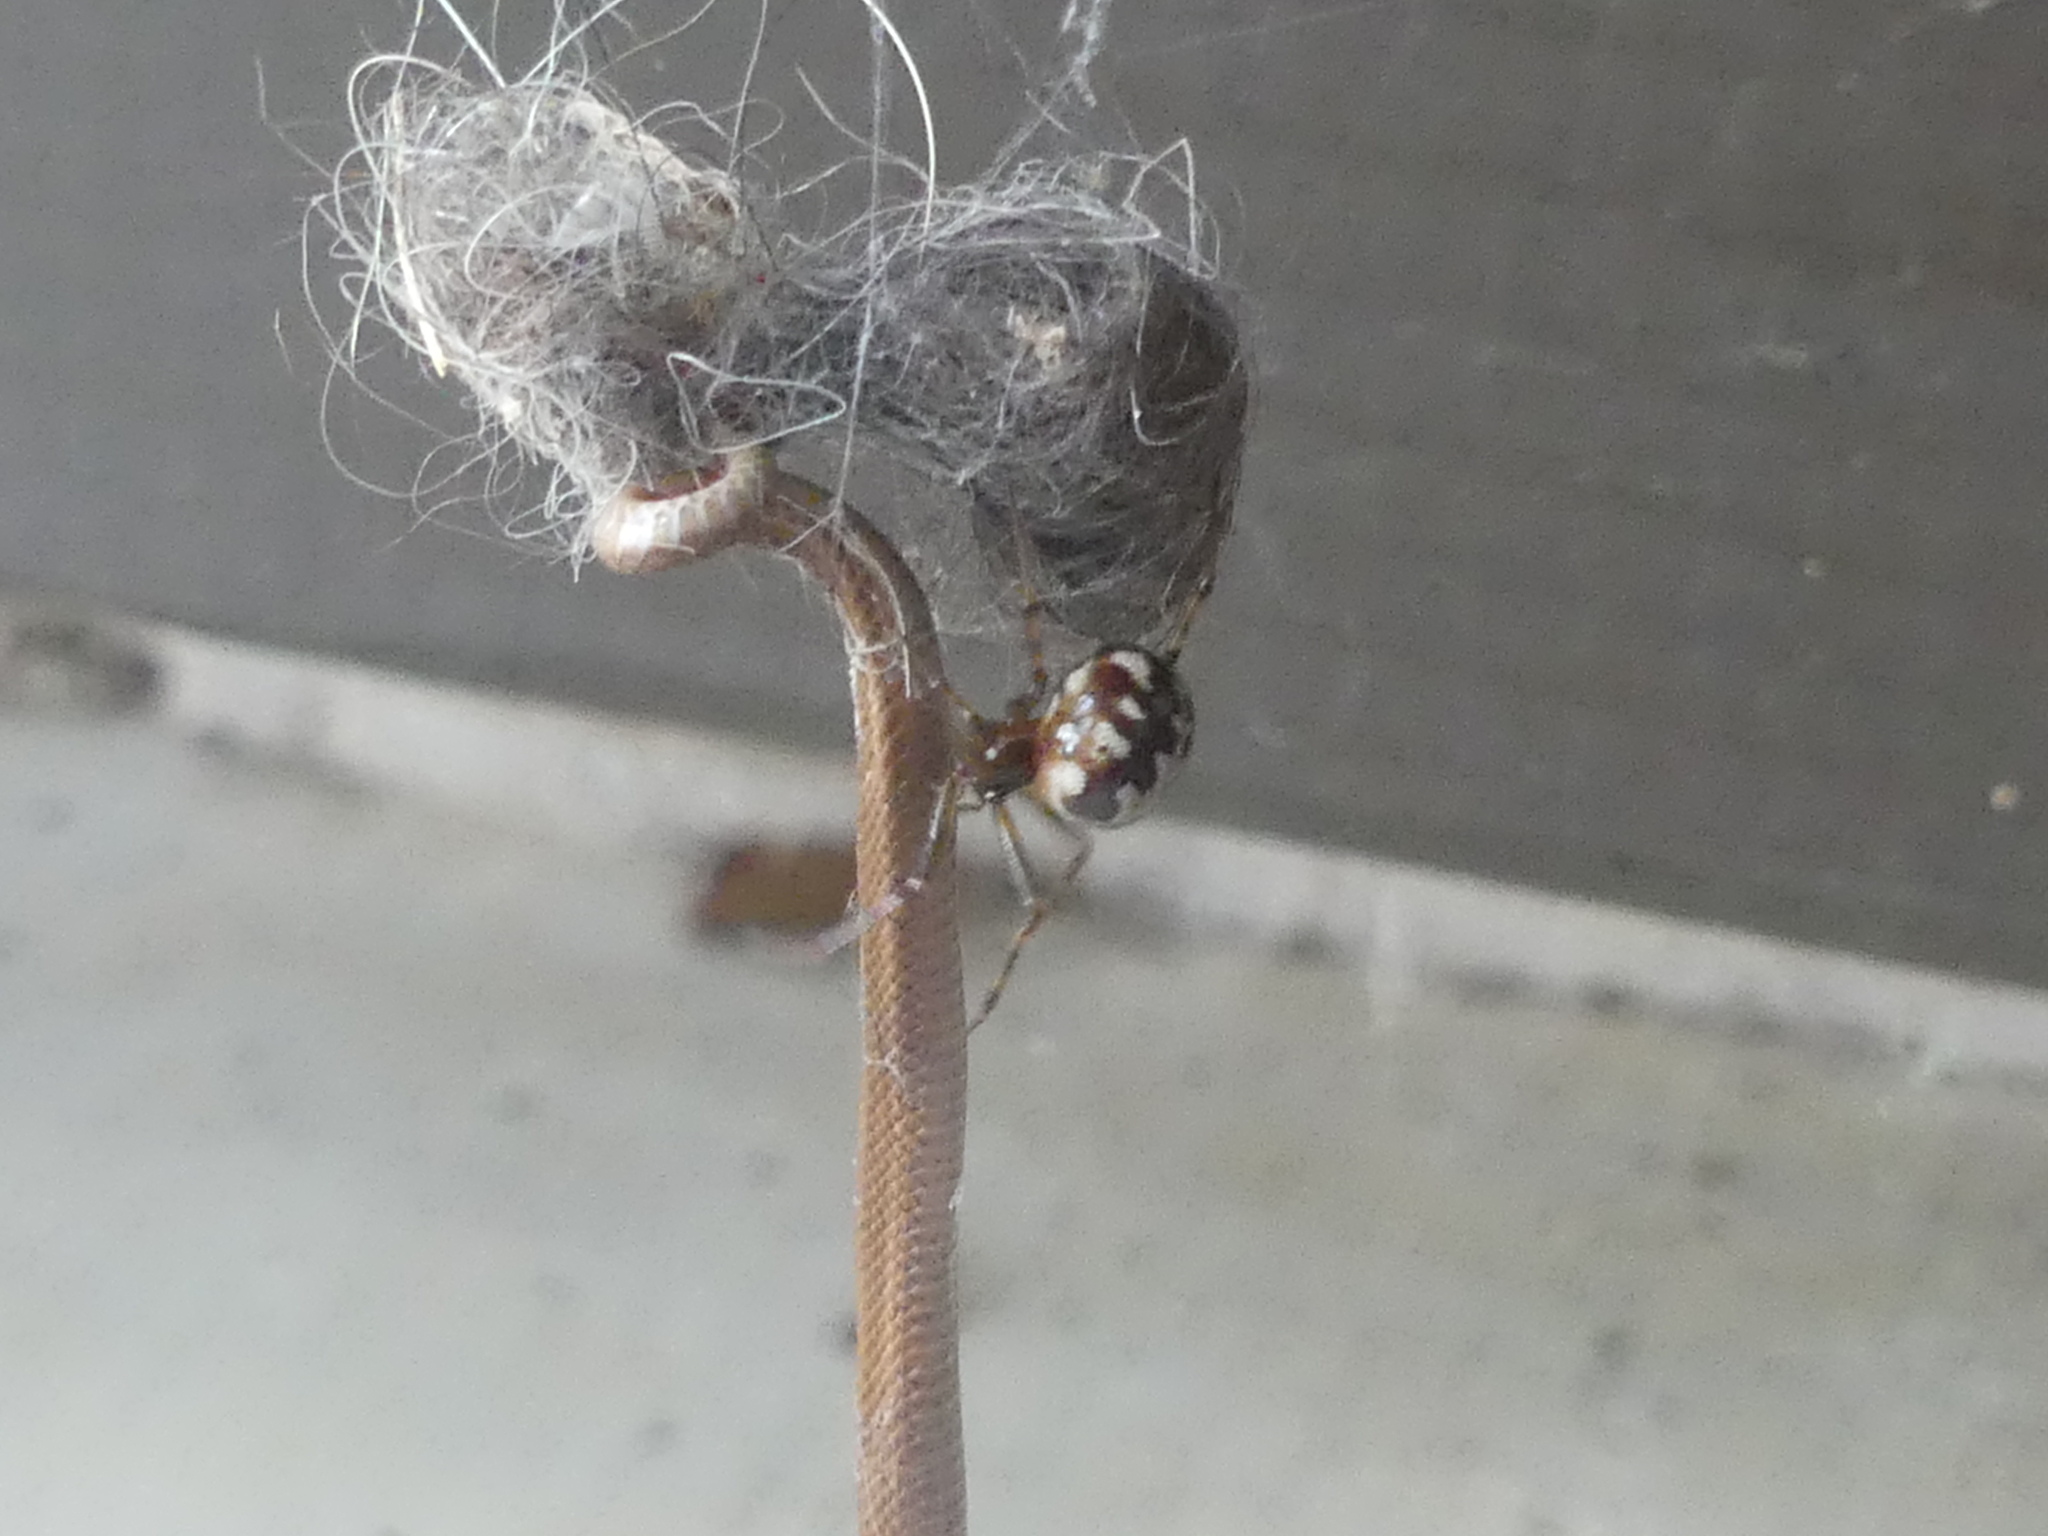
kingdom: Animalia
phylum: Arthropoda
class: Arachnida
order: Araneae
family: Theridiidae
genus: Steatoda
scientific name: Steatoda triangulosa
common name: Triangulate bud spider
